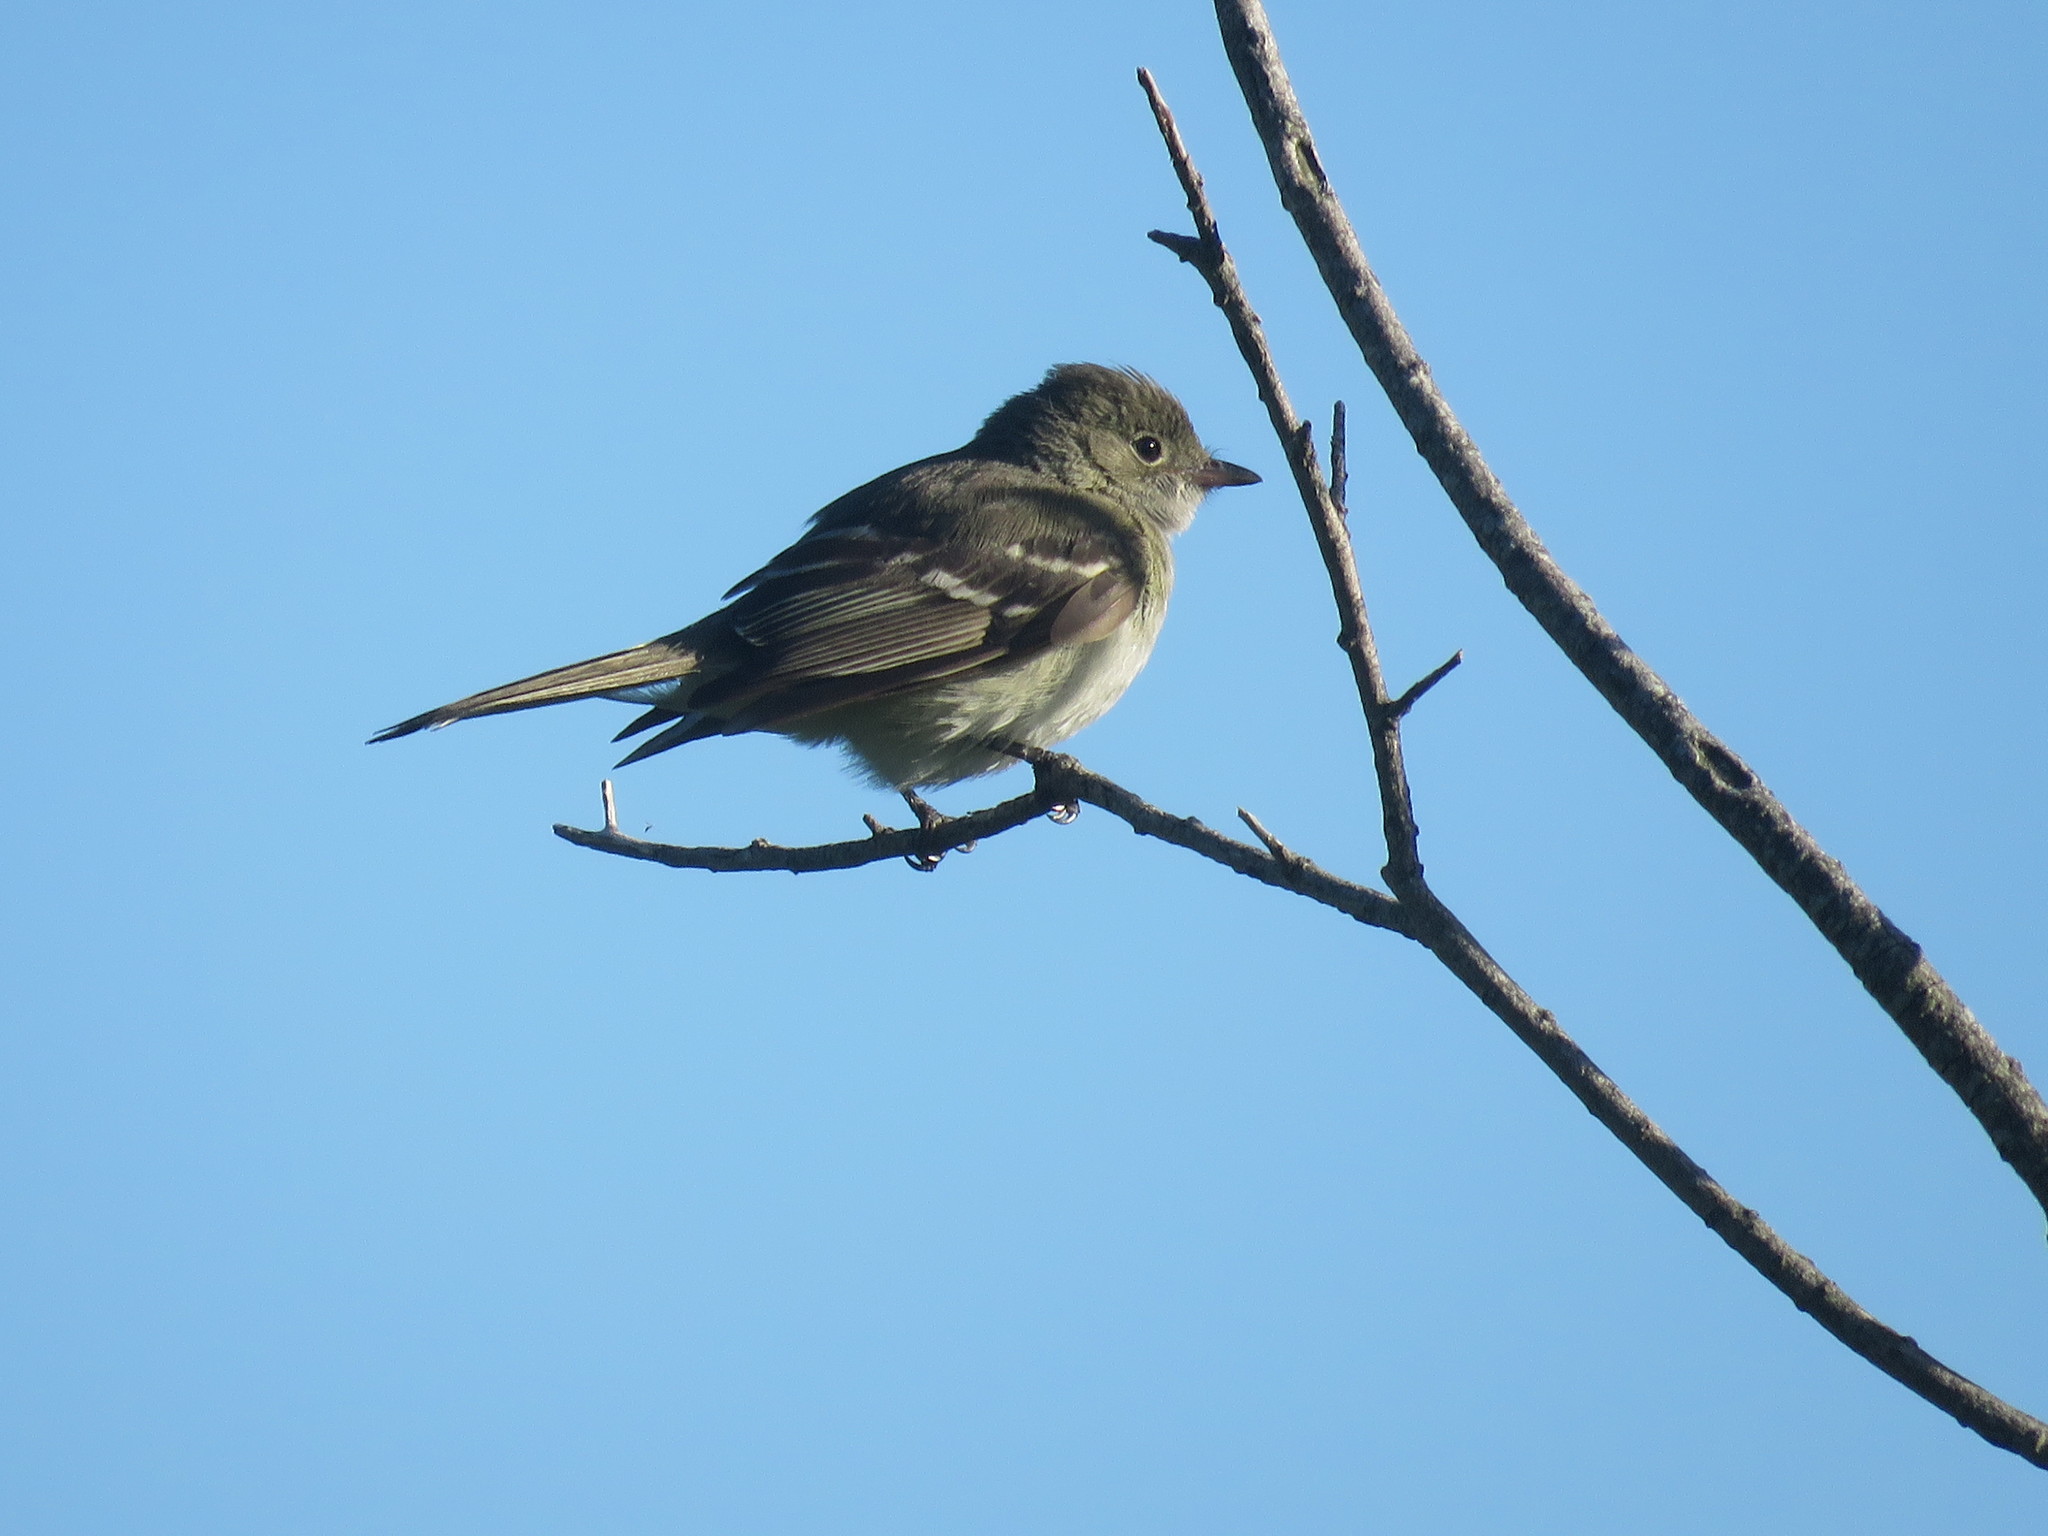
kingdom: Animalia
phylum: Chordata
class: Aves
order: Passeriformes
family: Tyrannidae
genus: Elaenia
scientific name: Elaenia parvirostris
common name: Small-billed elaenia
